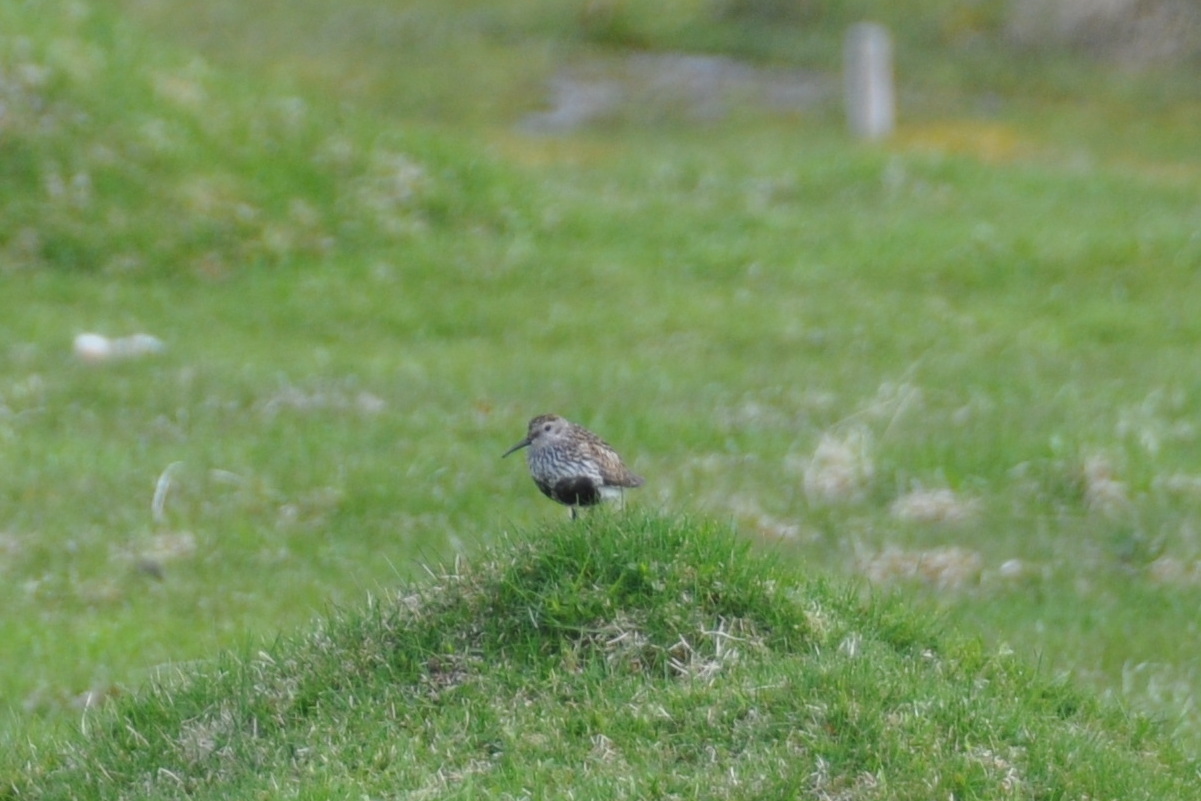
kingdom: Animalia
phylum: Chordata
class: Aves
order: Charadriiformes
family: Scolopacidae
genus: Calidris
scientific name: Calidris alpina
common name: Dunlin
